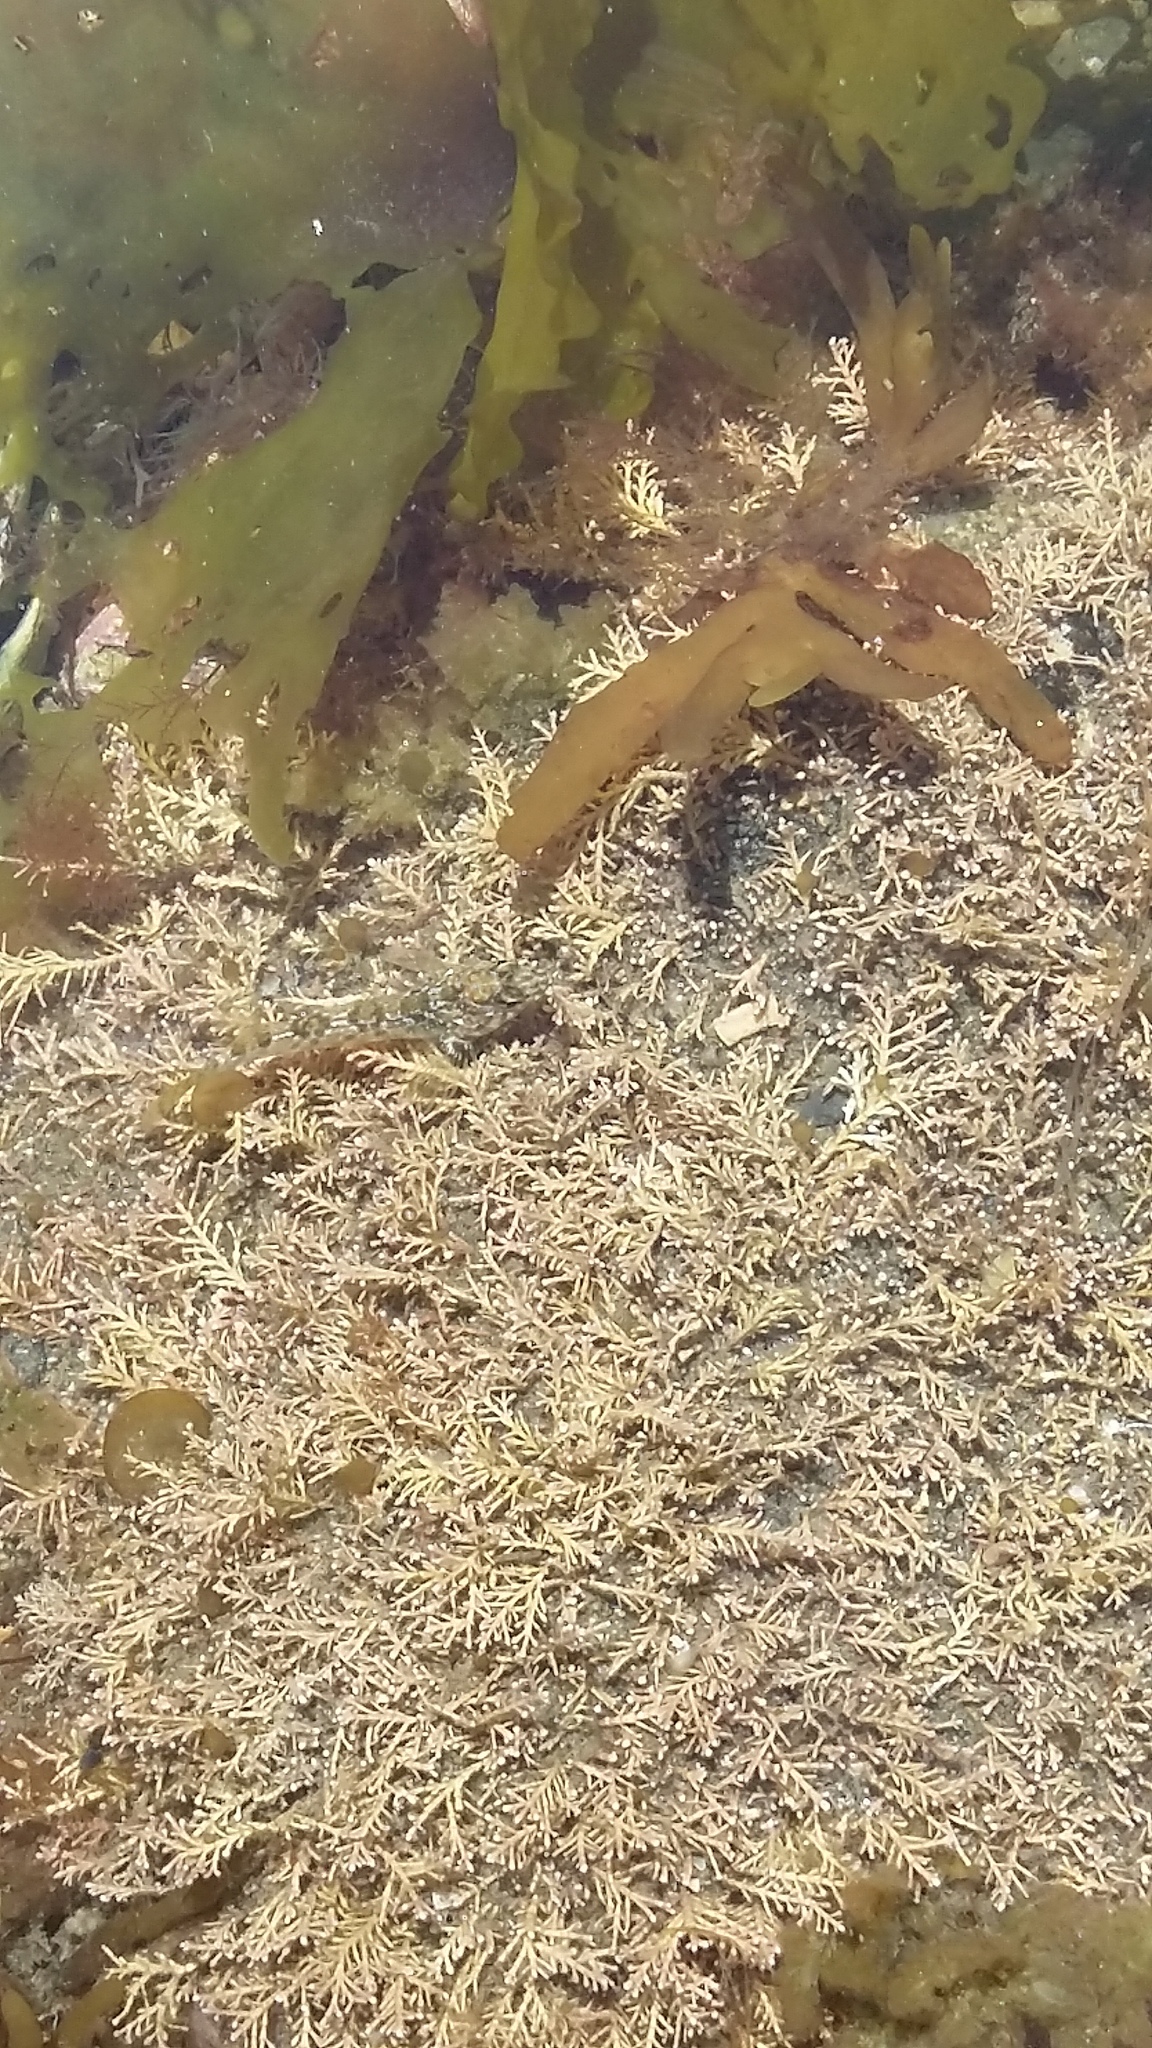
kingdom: Animalia
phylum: Chordata
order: Perciformes
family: Tripterygiidae
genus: Bellapiscis
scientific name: Bellapiscis medius
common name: Twister
